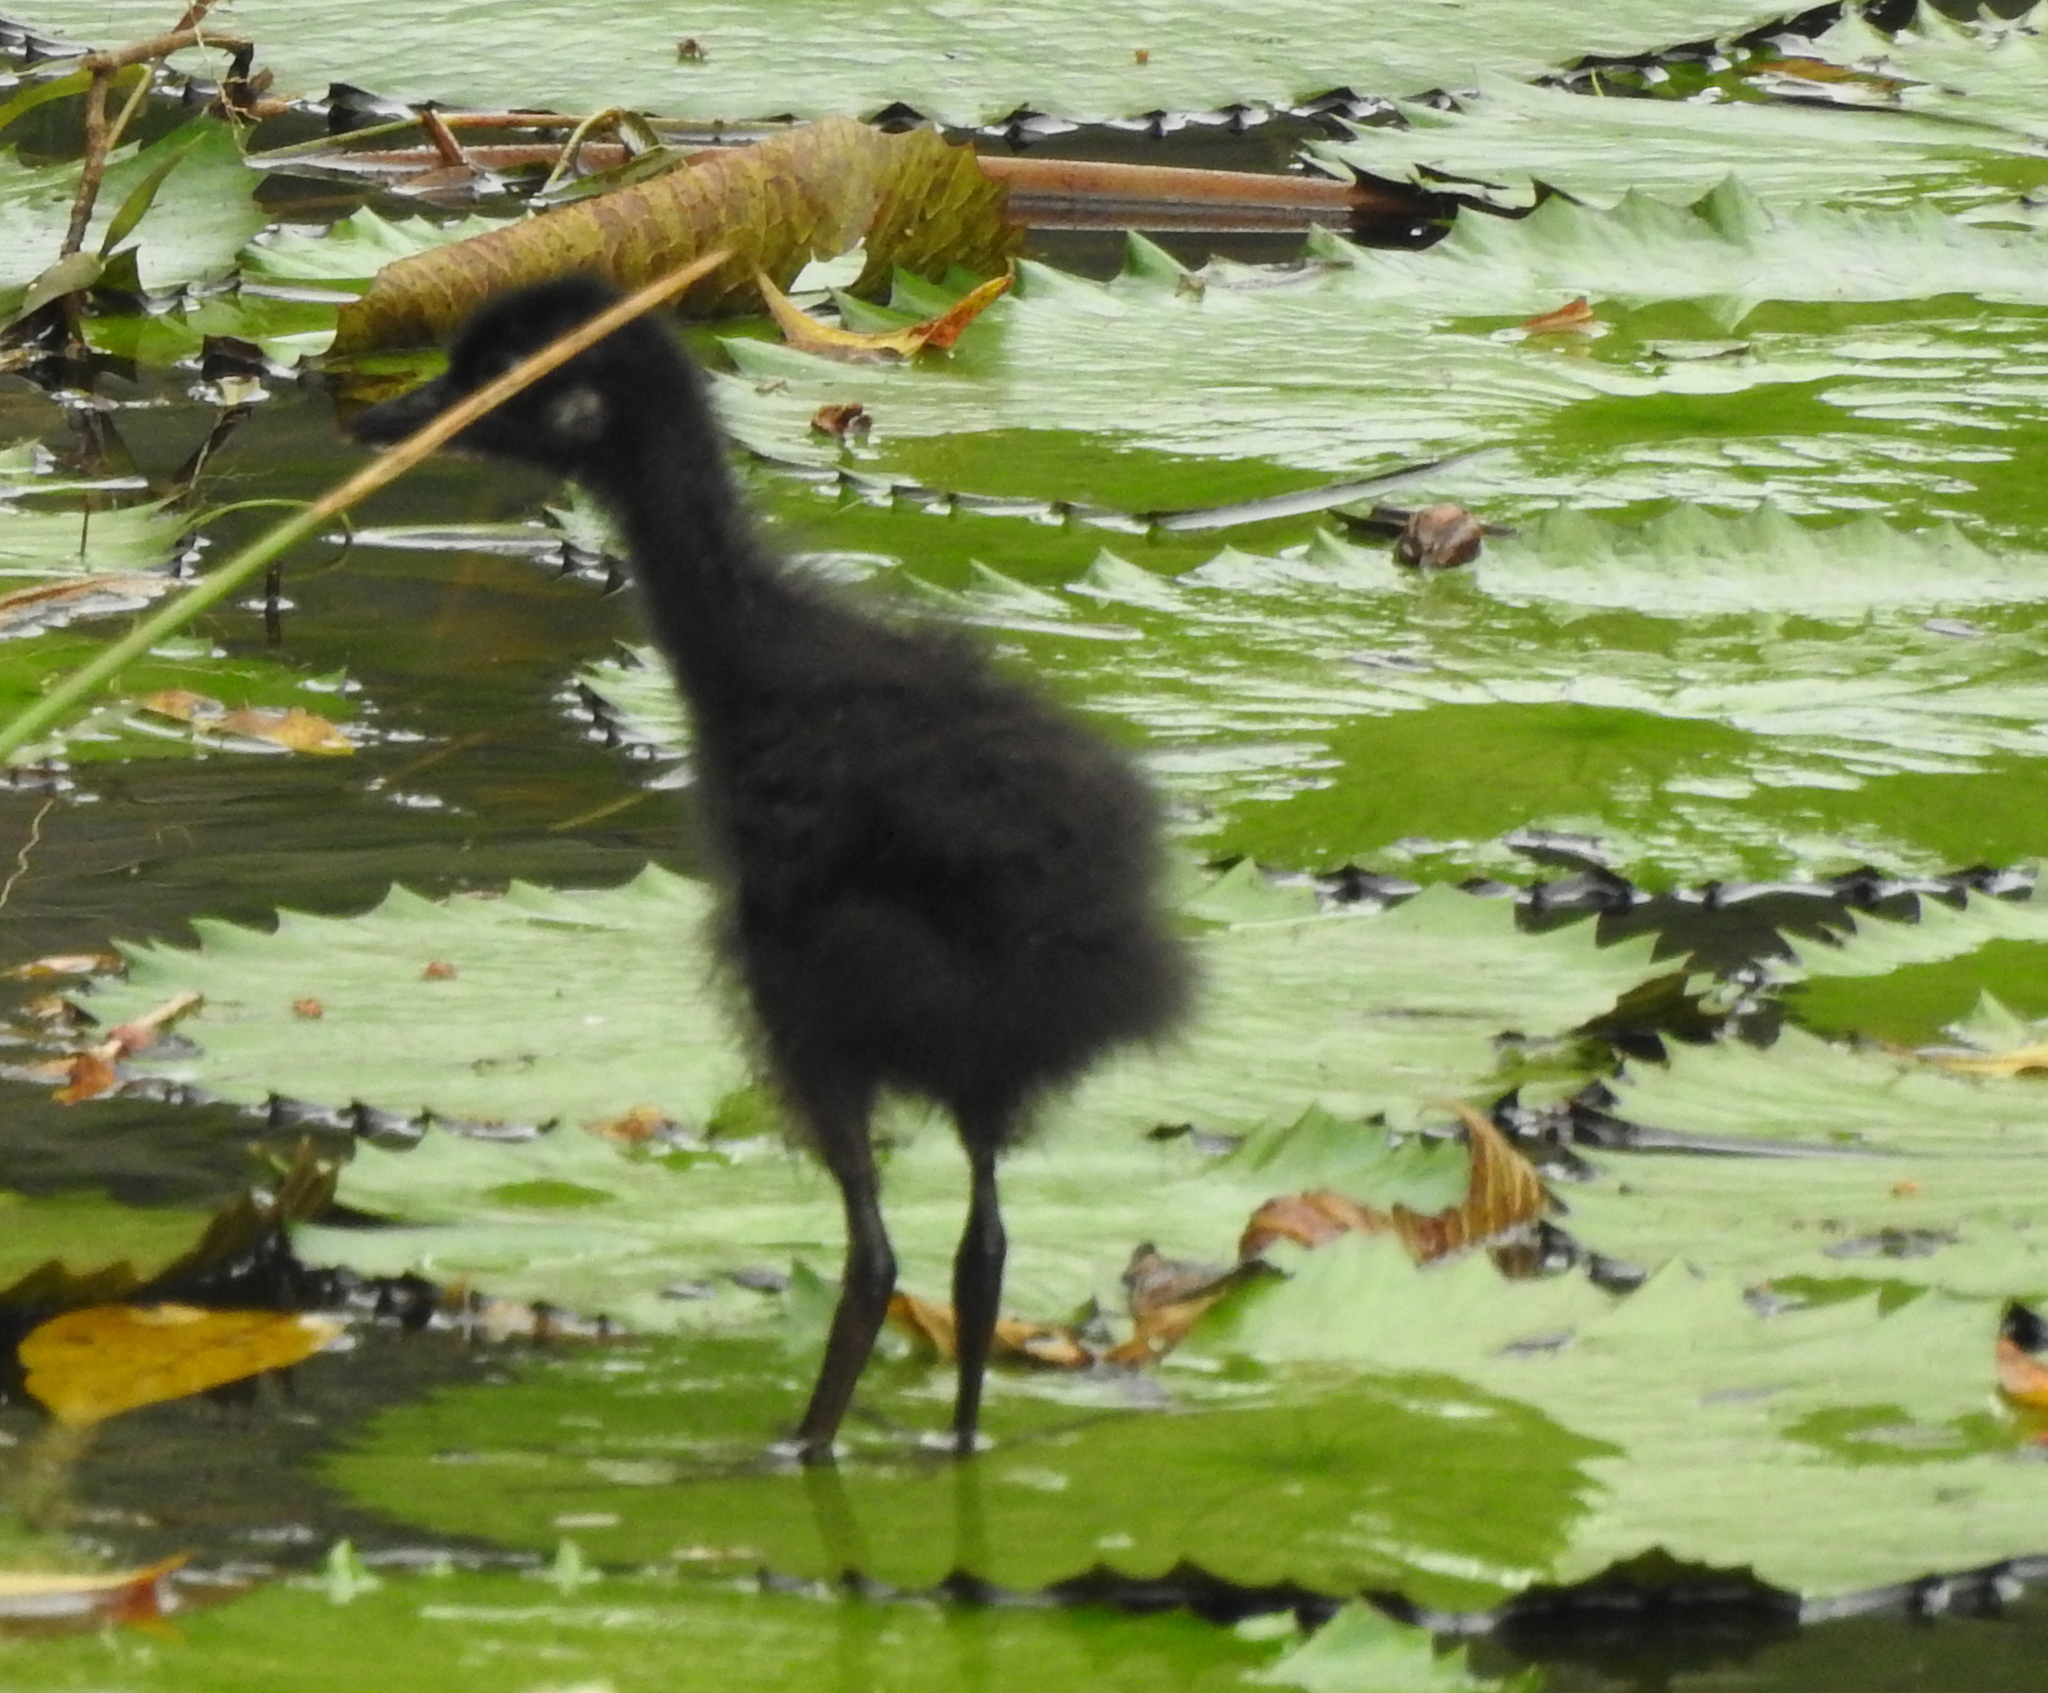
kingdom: Animalia
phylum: Chordata
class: Aves
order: Gruiformes
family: Rallidae
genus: Amaurornis
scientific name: Amaurornis phoenicurus
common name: White-breasted waterhen
